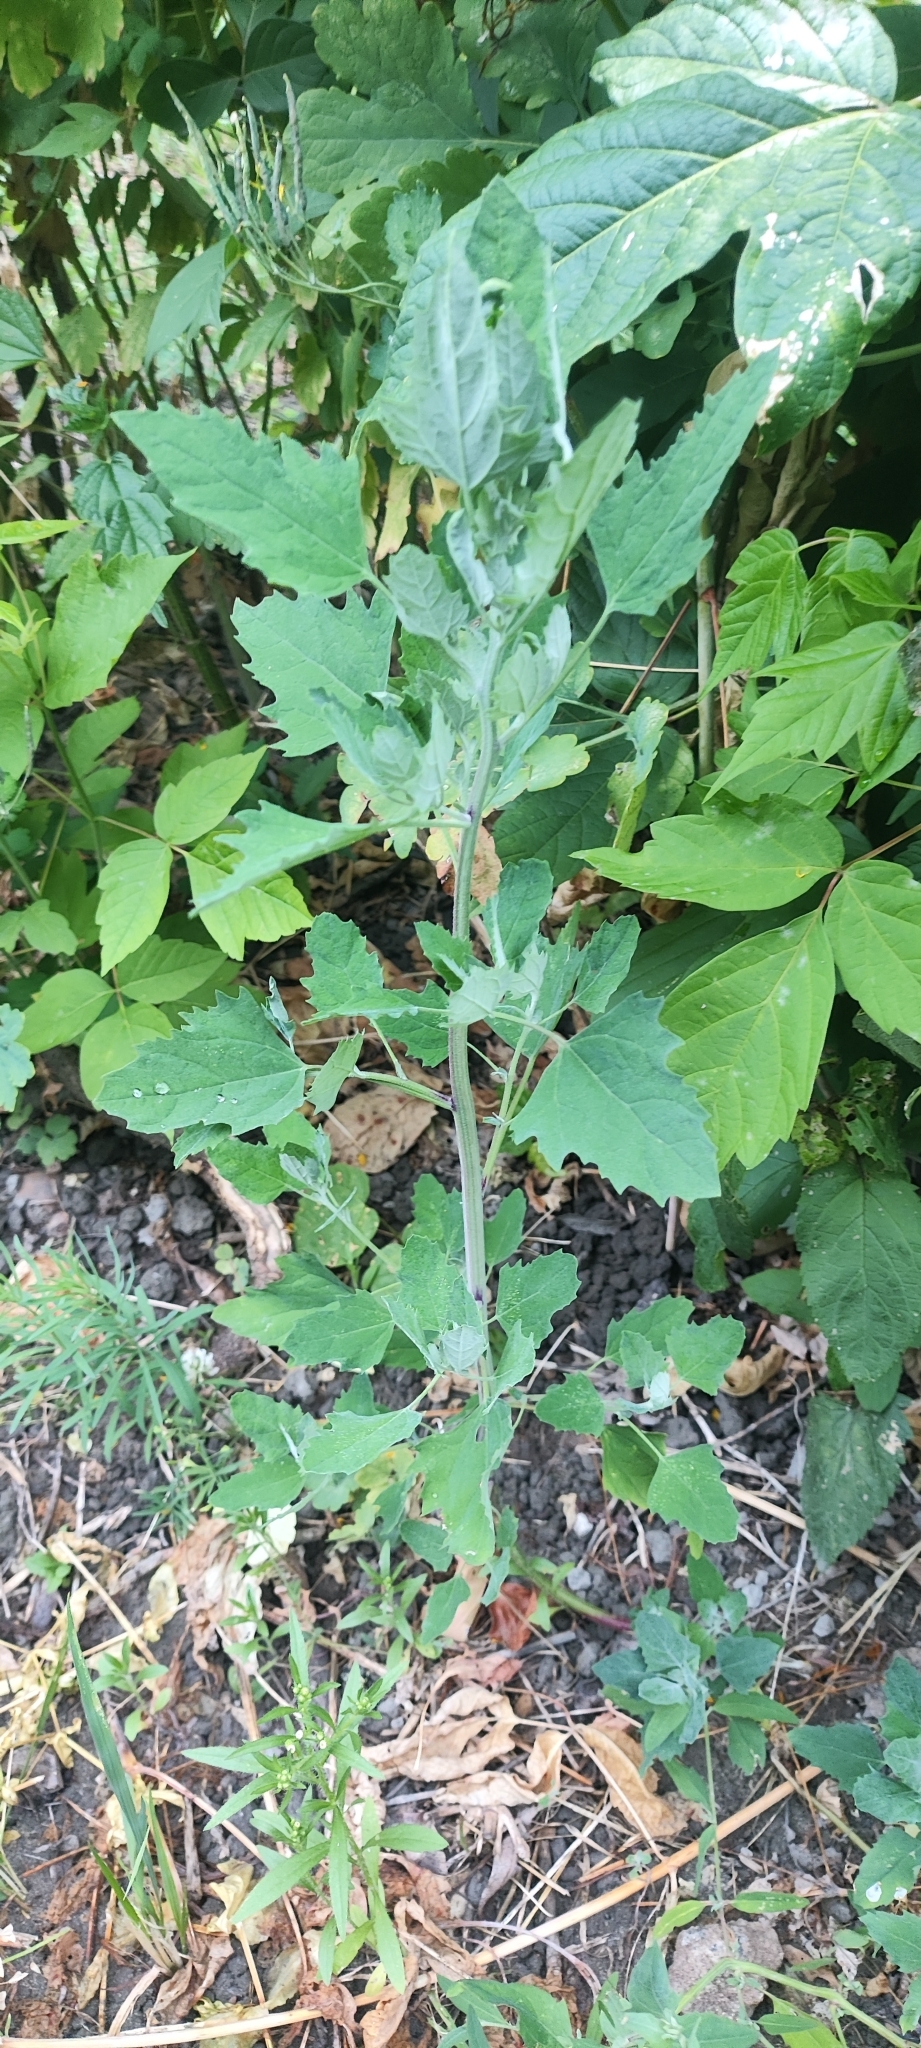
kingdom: Plantae
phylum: Tracheophyta
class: Magnoliopsida
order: Caryophyllales
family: Amaranthaceae
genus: Chenopodium
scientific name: Chenopodium album
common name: Fat-hen
